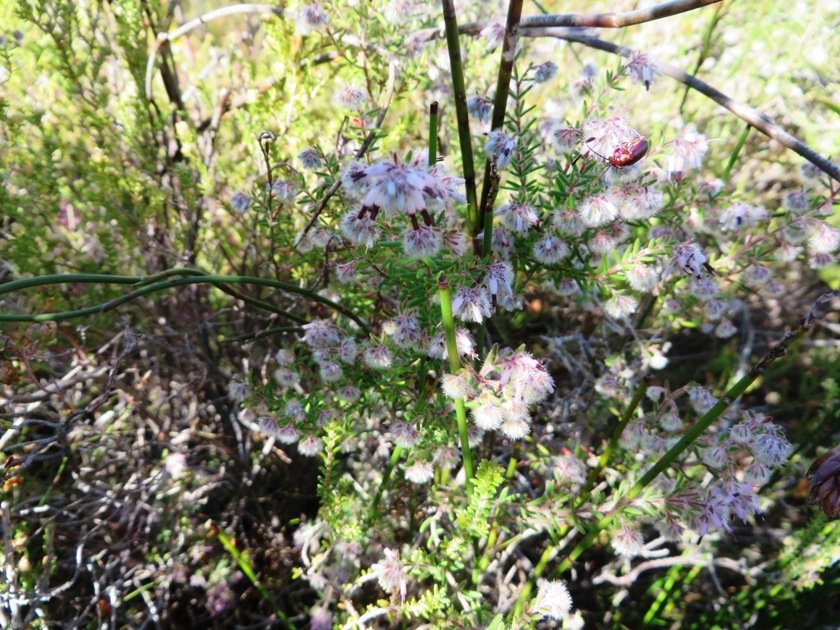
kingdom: Plantae
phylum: Tracheophyta
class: Magnoliopsida
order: Ericales
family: Ericaceae
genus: Erica
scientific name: Erica eriocephala
